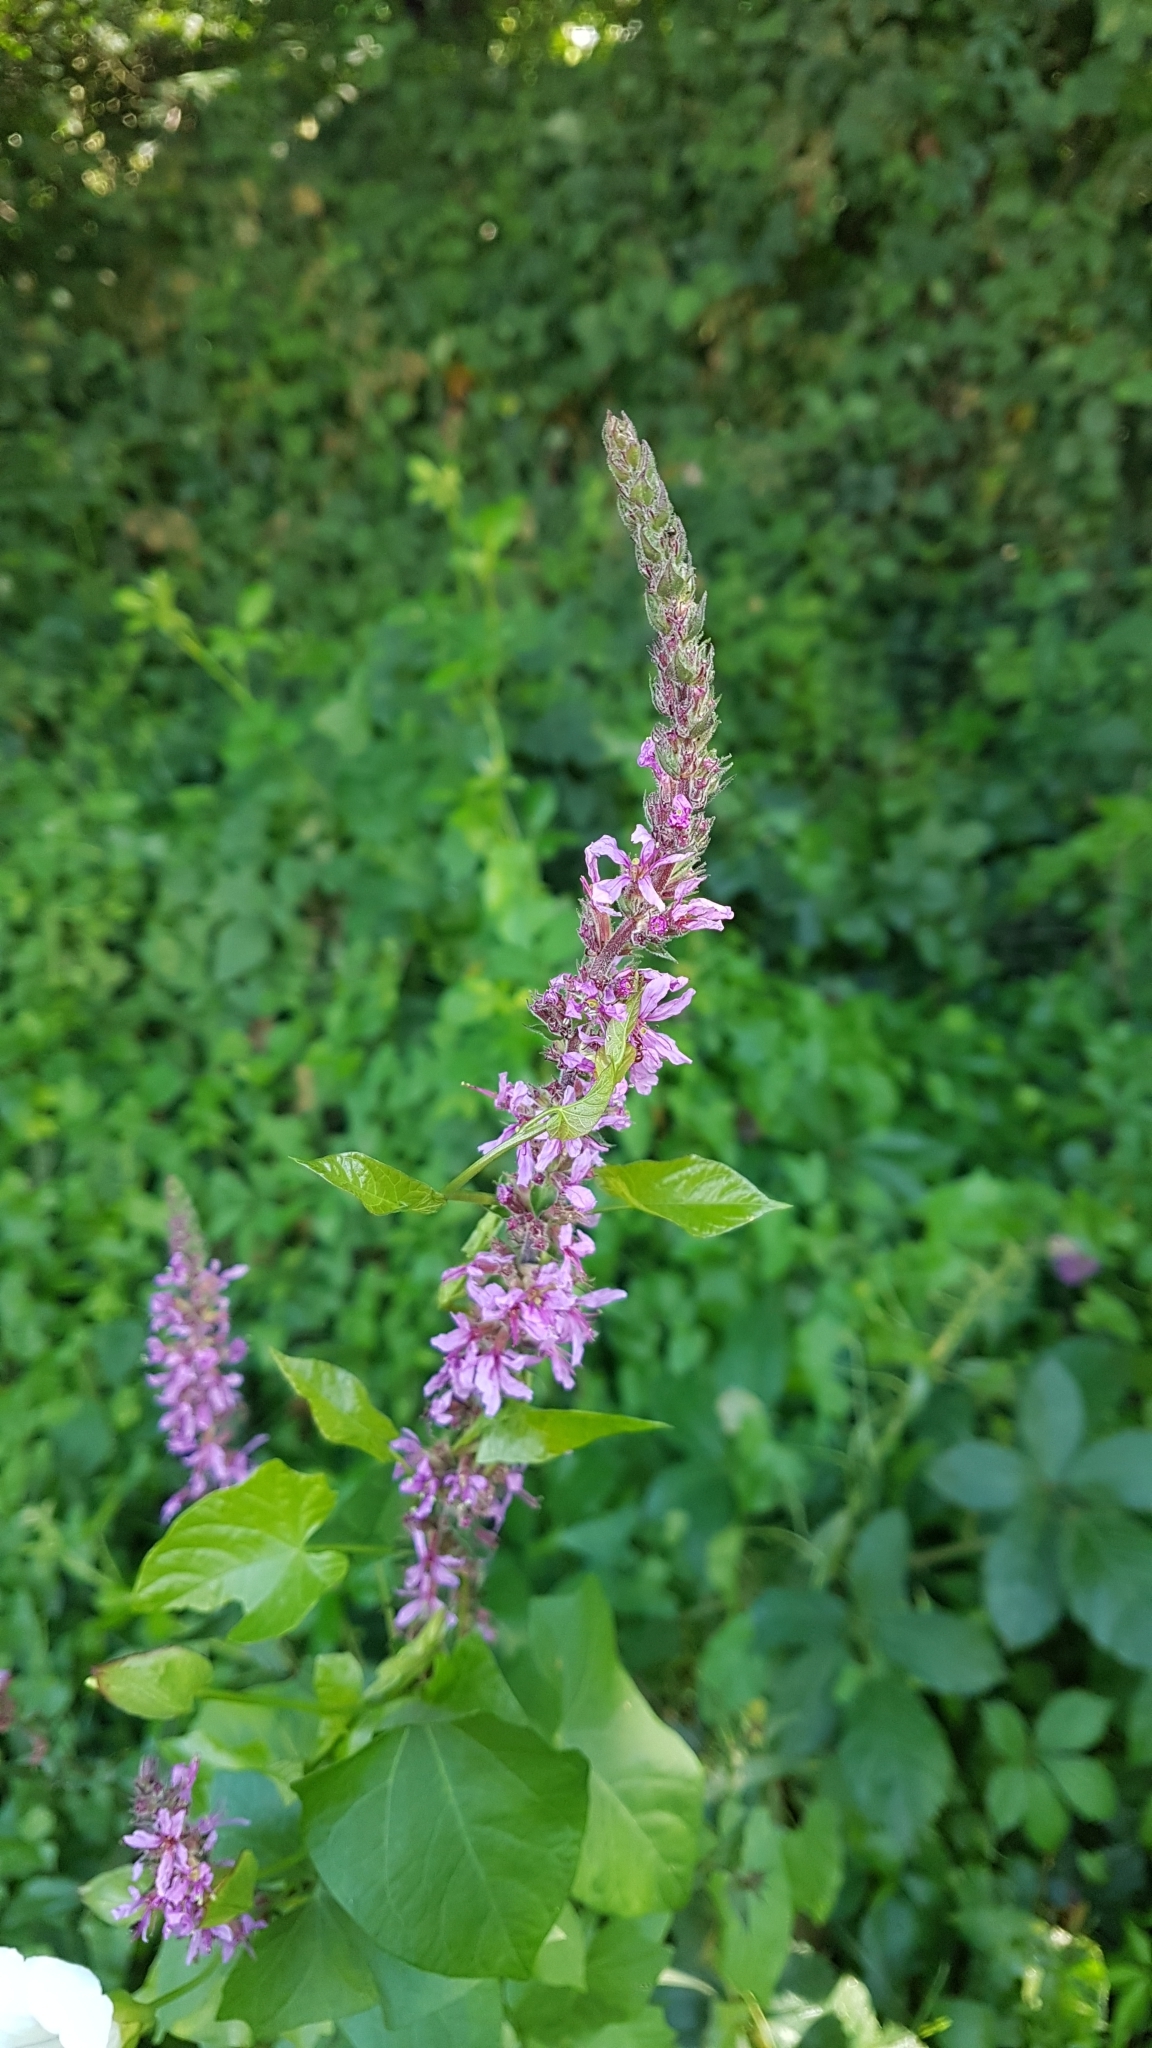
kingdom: Plantae
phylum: Tracheophyta
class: Magnoliopsida
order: Myrtales
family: Lythraceae
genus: Lythrum
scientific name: Lythrum salicaria
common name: Purple loosestrife
